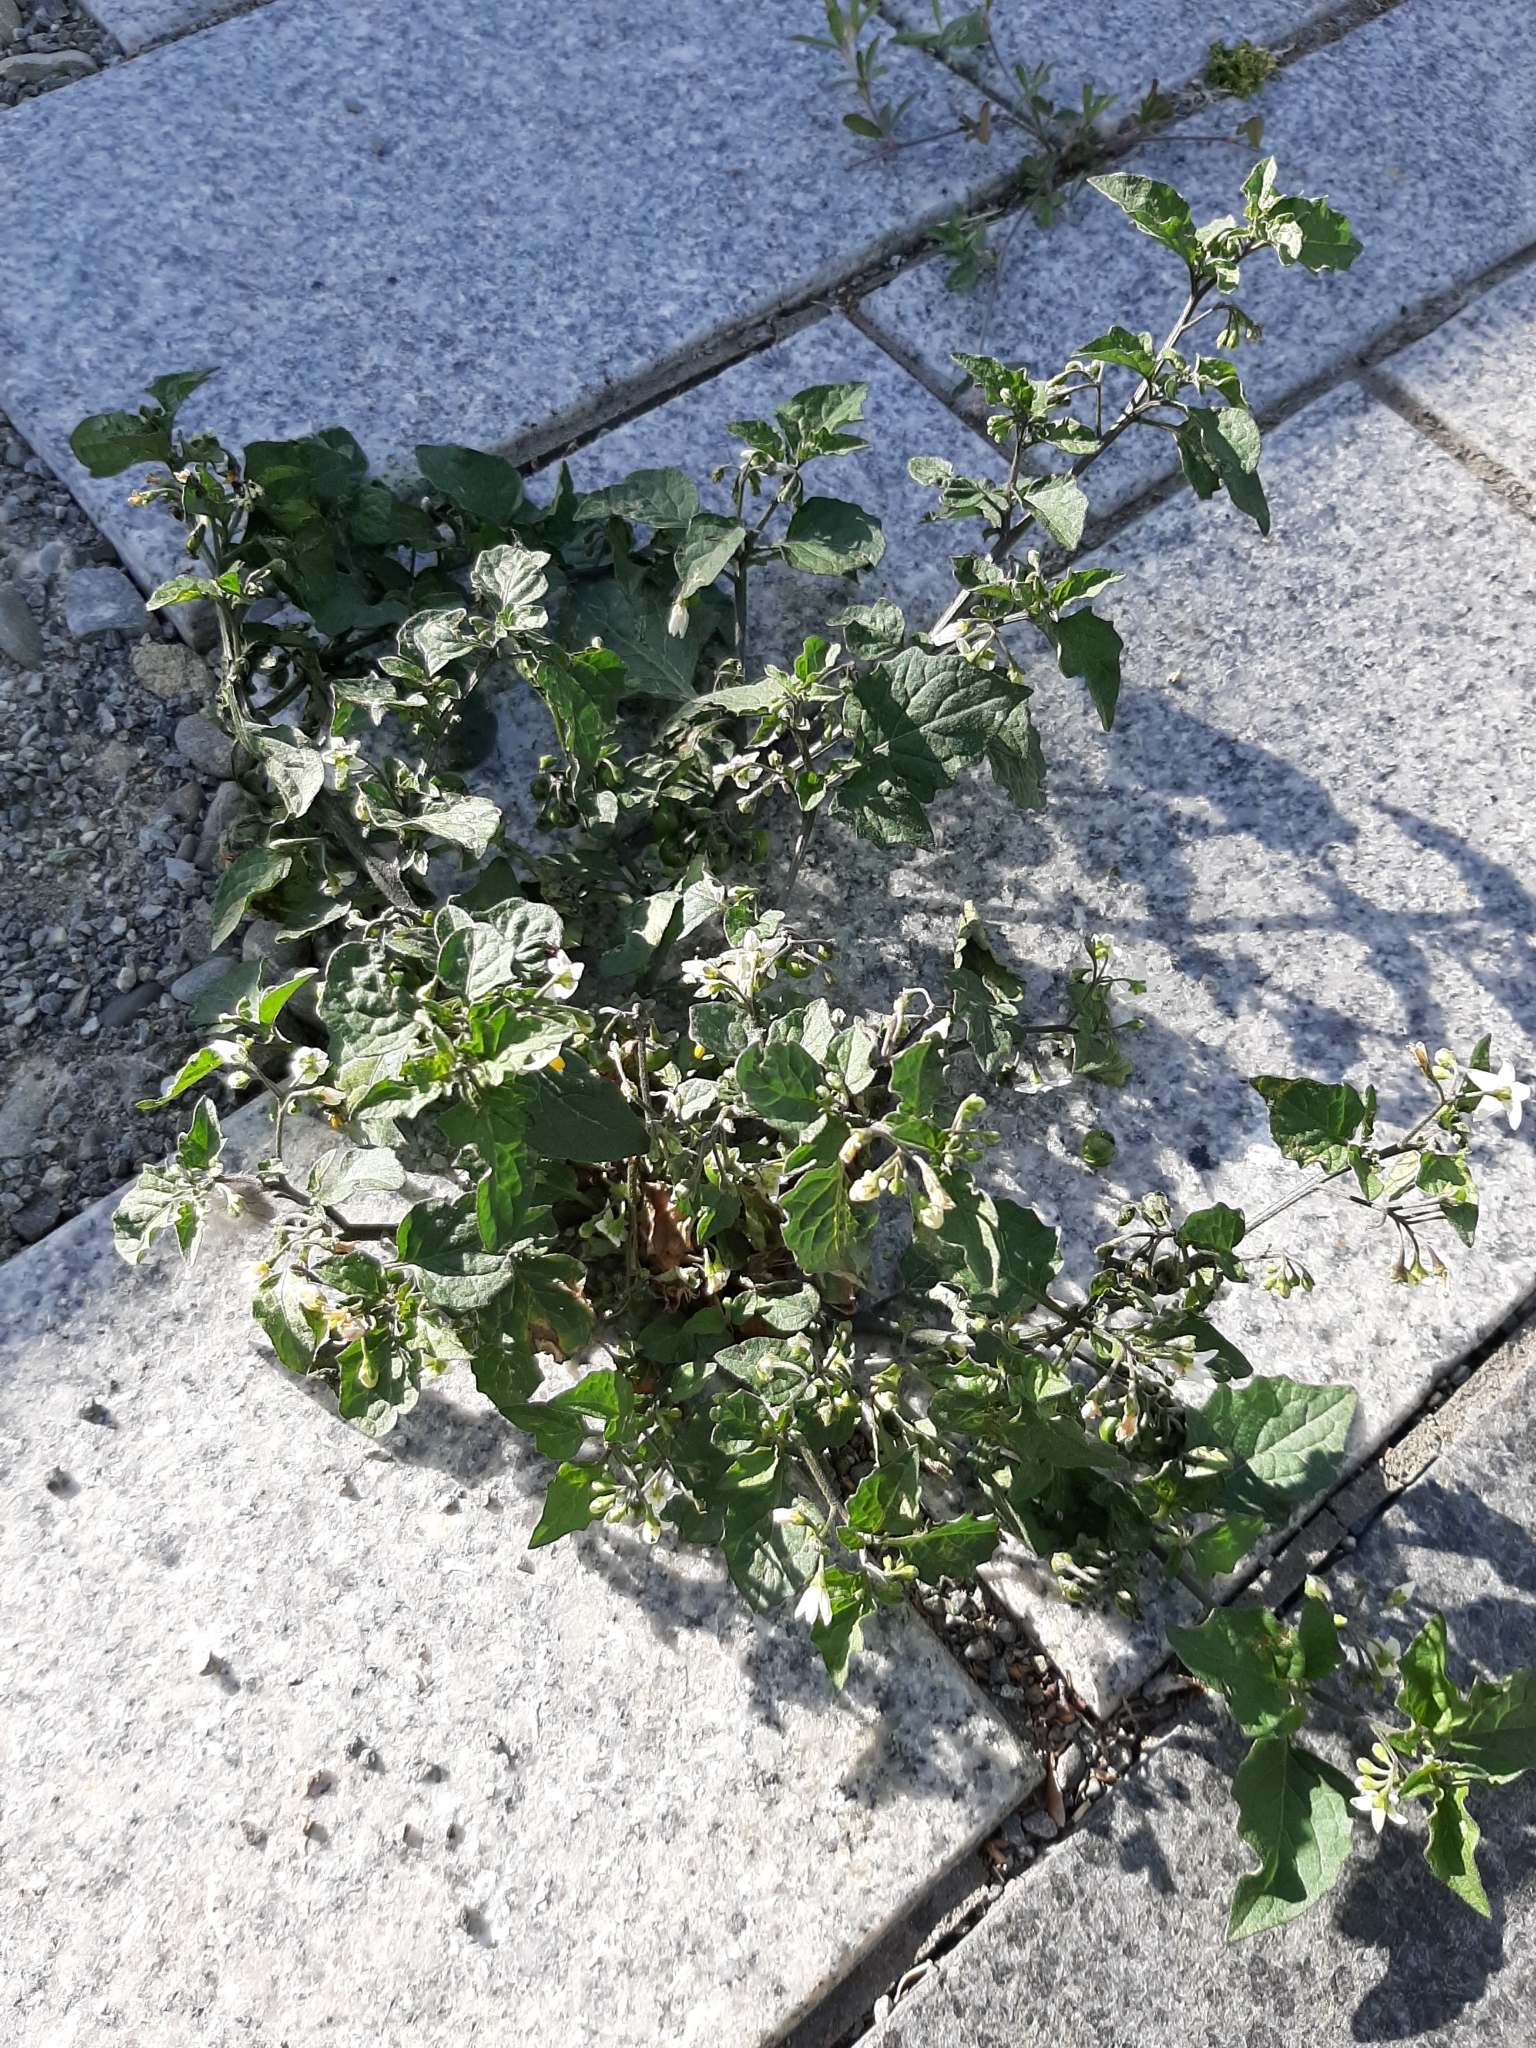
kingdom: Plantae
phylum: Tracheophyta
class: Magnoliopsida
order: Solanales
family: Solanaceae
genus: Solanum
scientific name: Solanum nigrum
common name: Black nightshade
